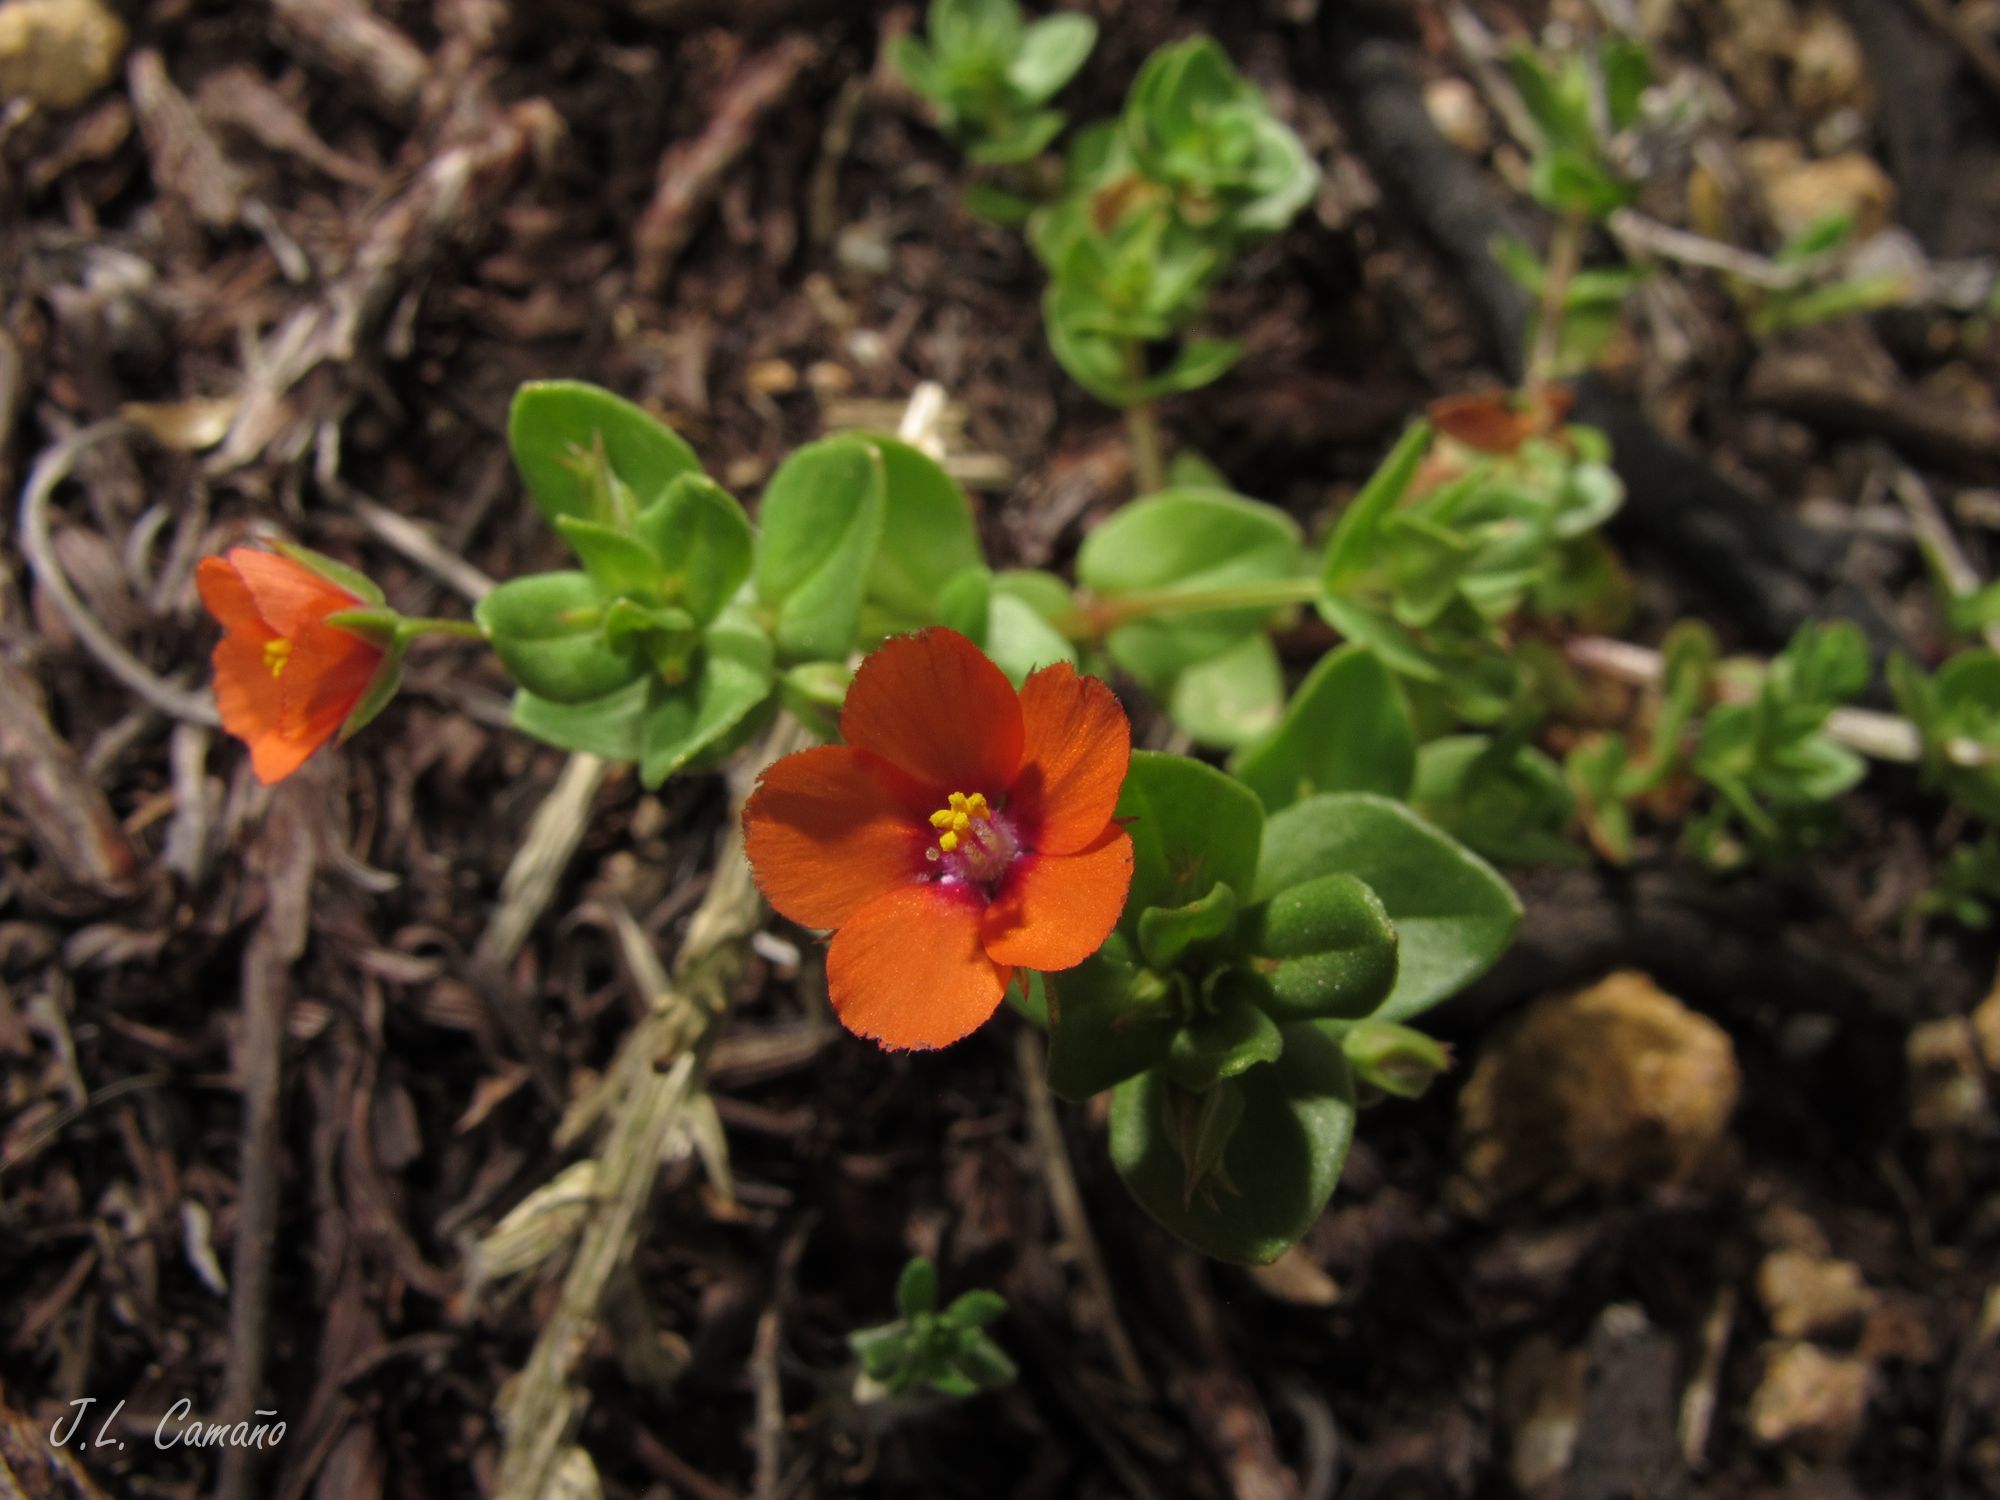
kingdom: Plantae
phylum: Tracheophyta
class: Magnoliopsida
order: Ericales
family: Primulaceae
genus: Lysimachia
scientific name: Lysimachia arvensis
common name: Scarlet pimpernel
